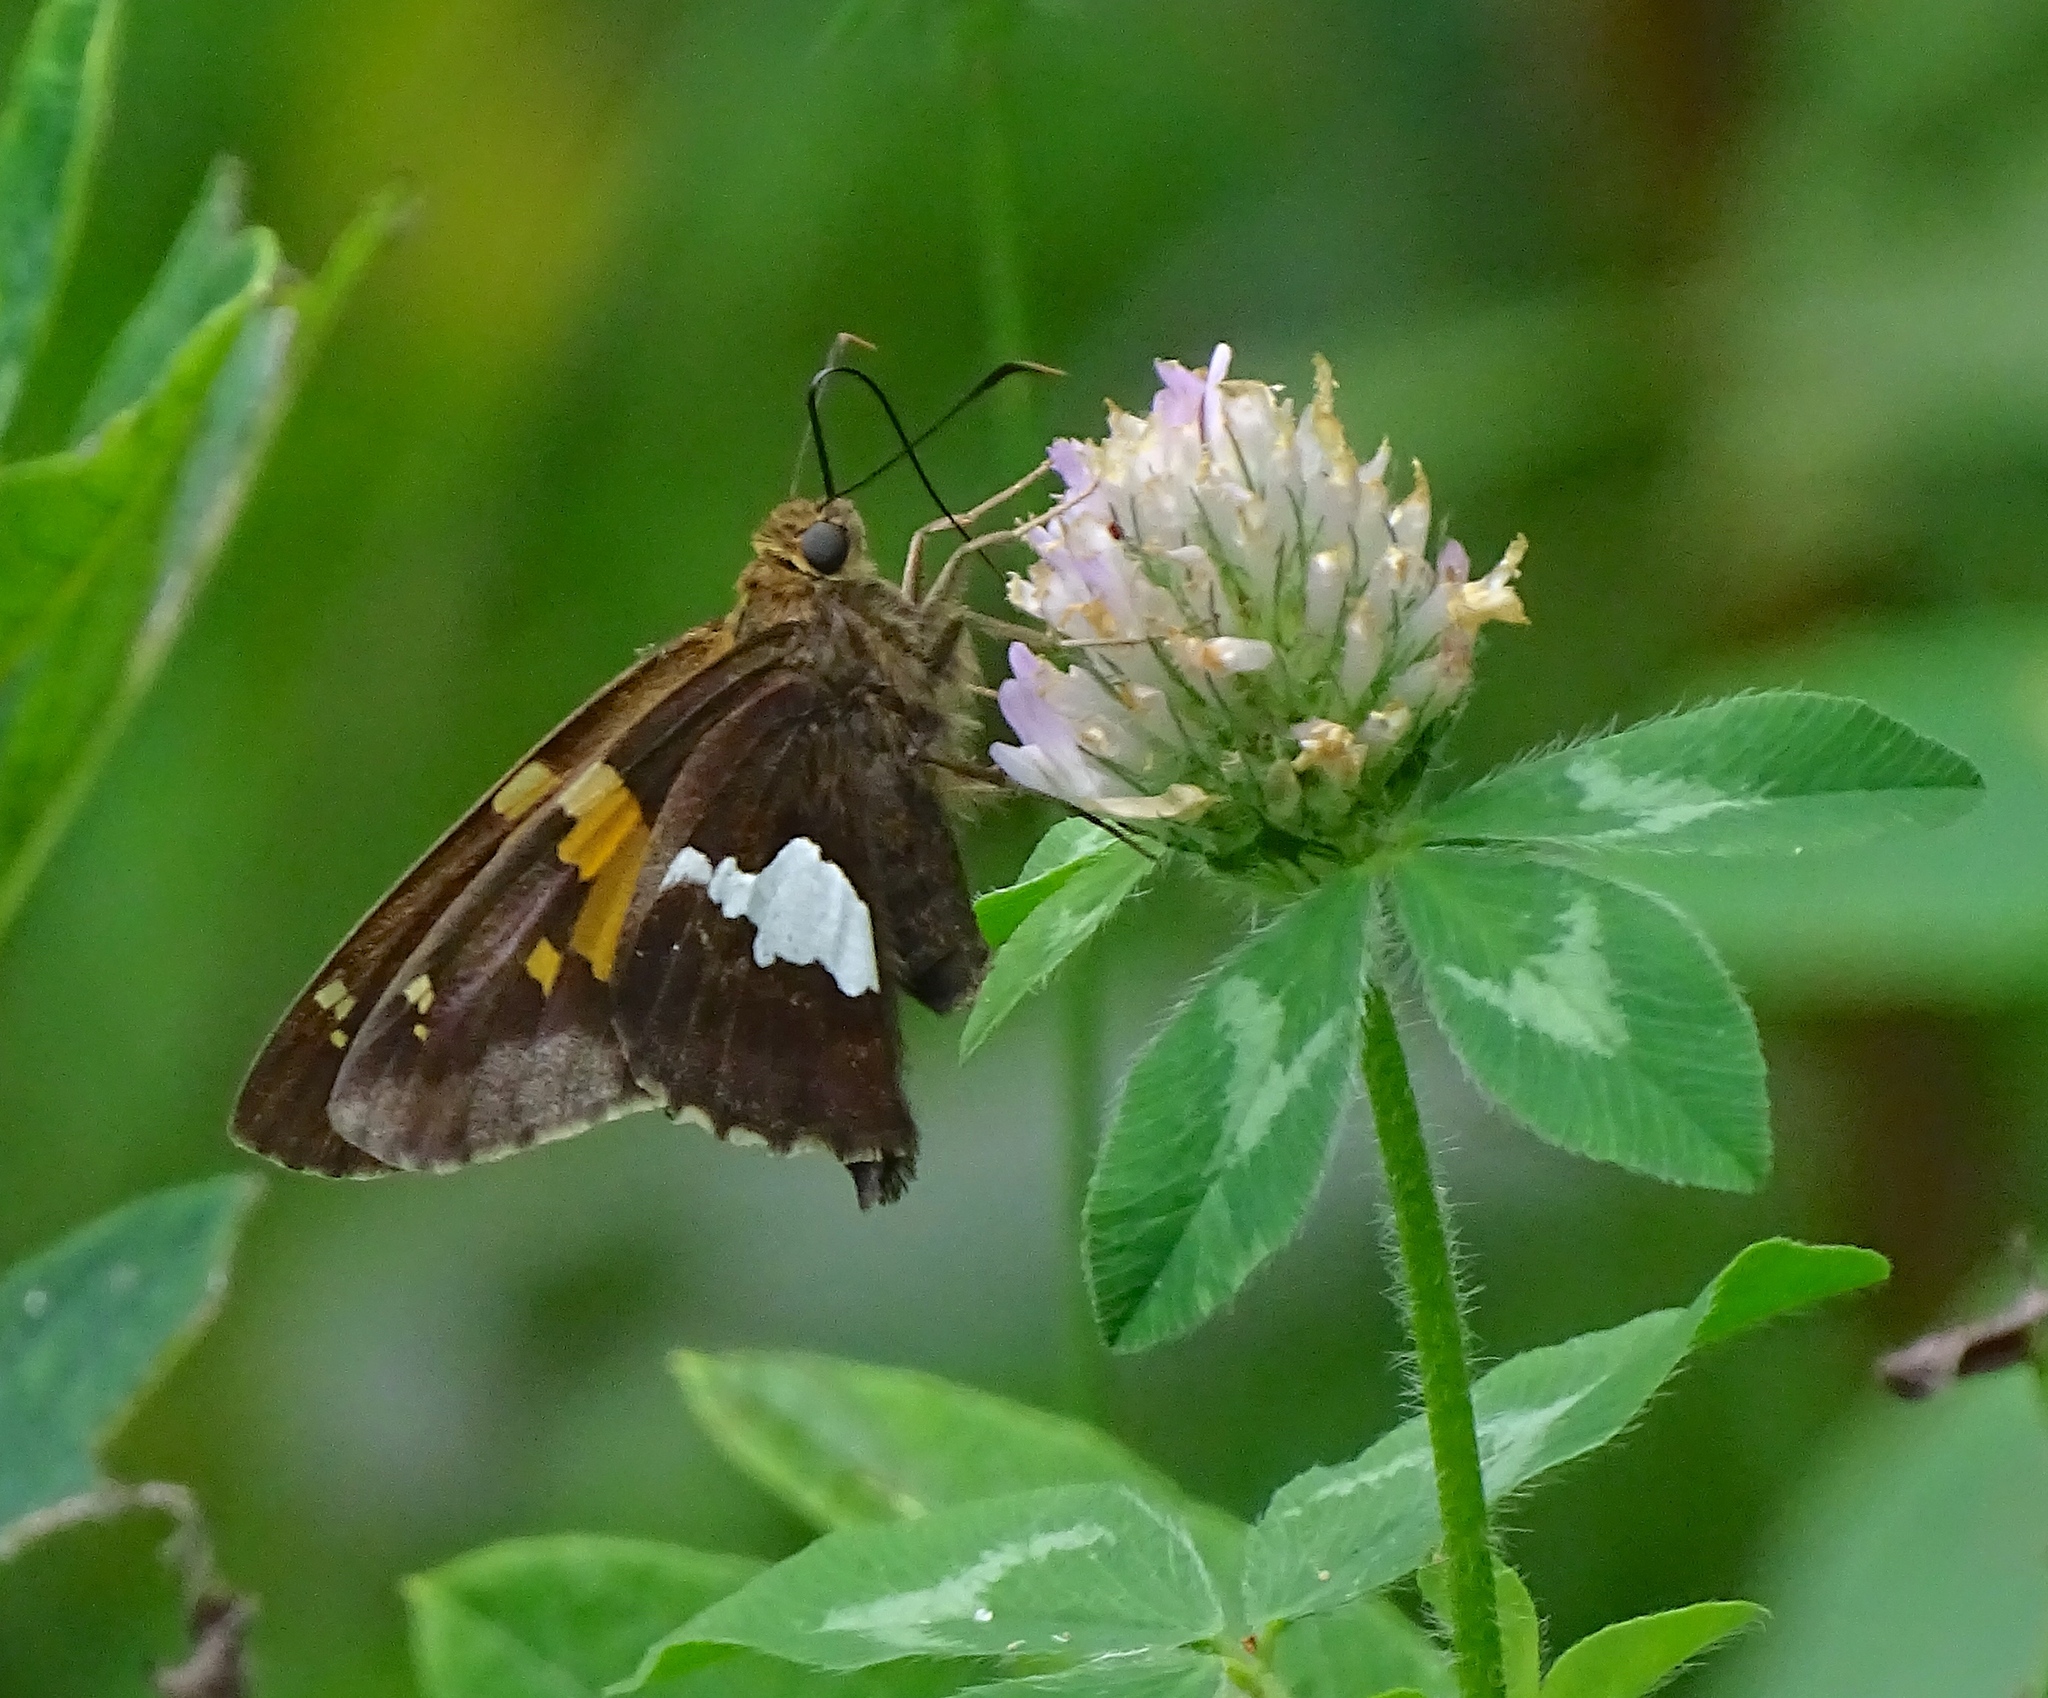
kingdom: Animalia
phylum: Arthropoda
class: Insecta
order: Lepidoptera
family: Hesperiidae
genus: Epargyreus
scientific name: Epargyreus clarus
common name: Silver-spotted skipper
